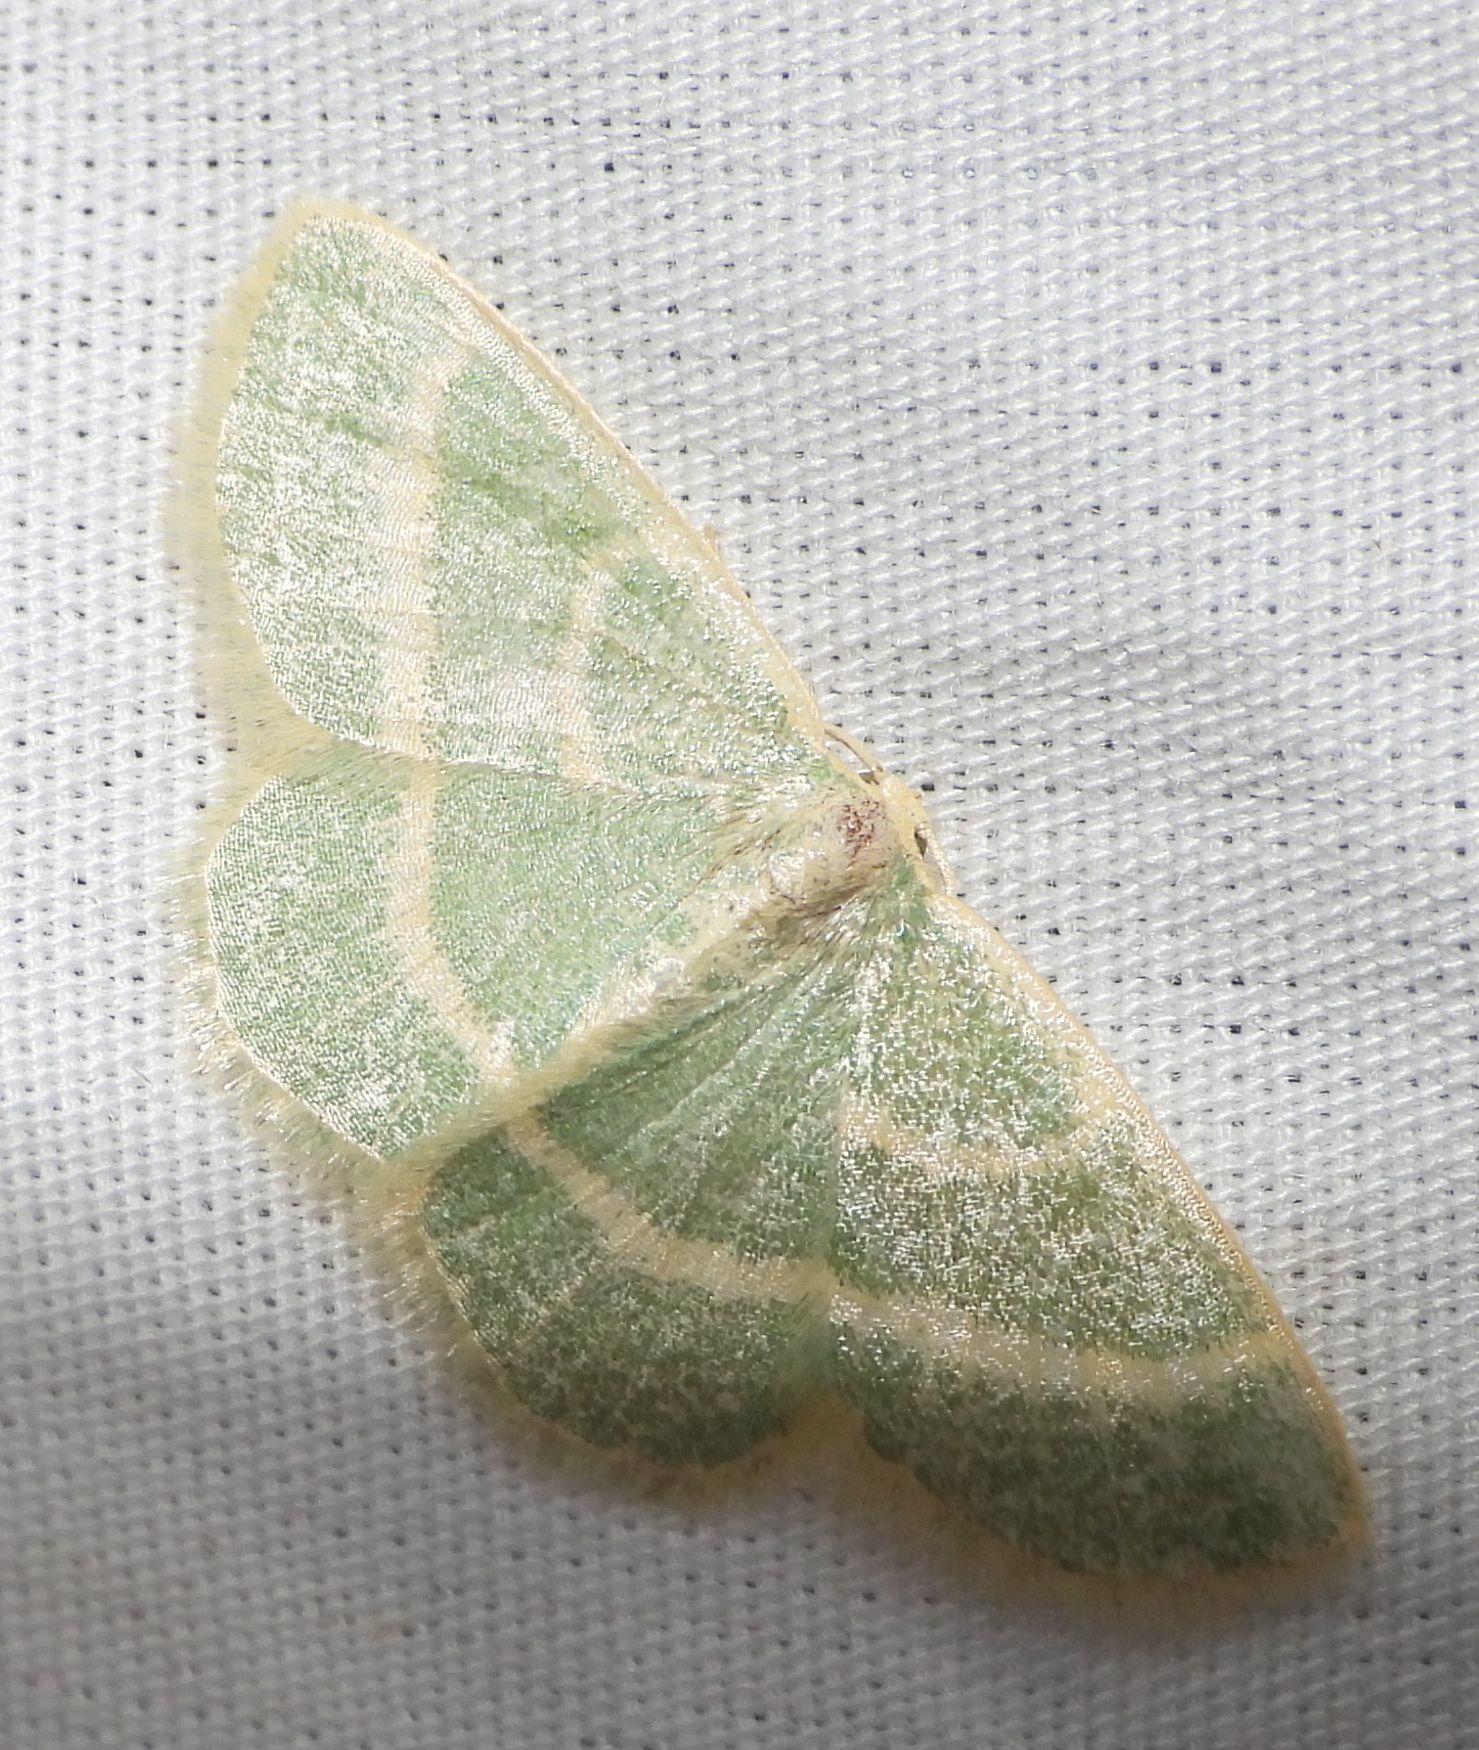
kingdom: Animalia
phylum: Arthropoda
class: Insecta
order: Lepidoptera
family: Geometridae
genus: Chlorochlamys
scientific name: Chlorochlamys chloroleucaria
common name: Blackberry looper
